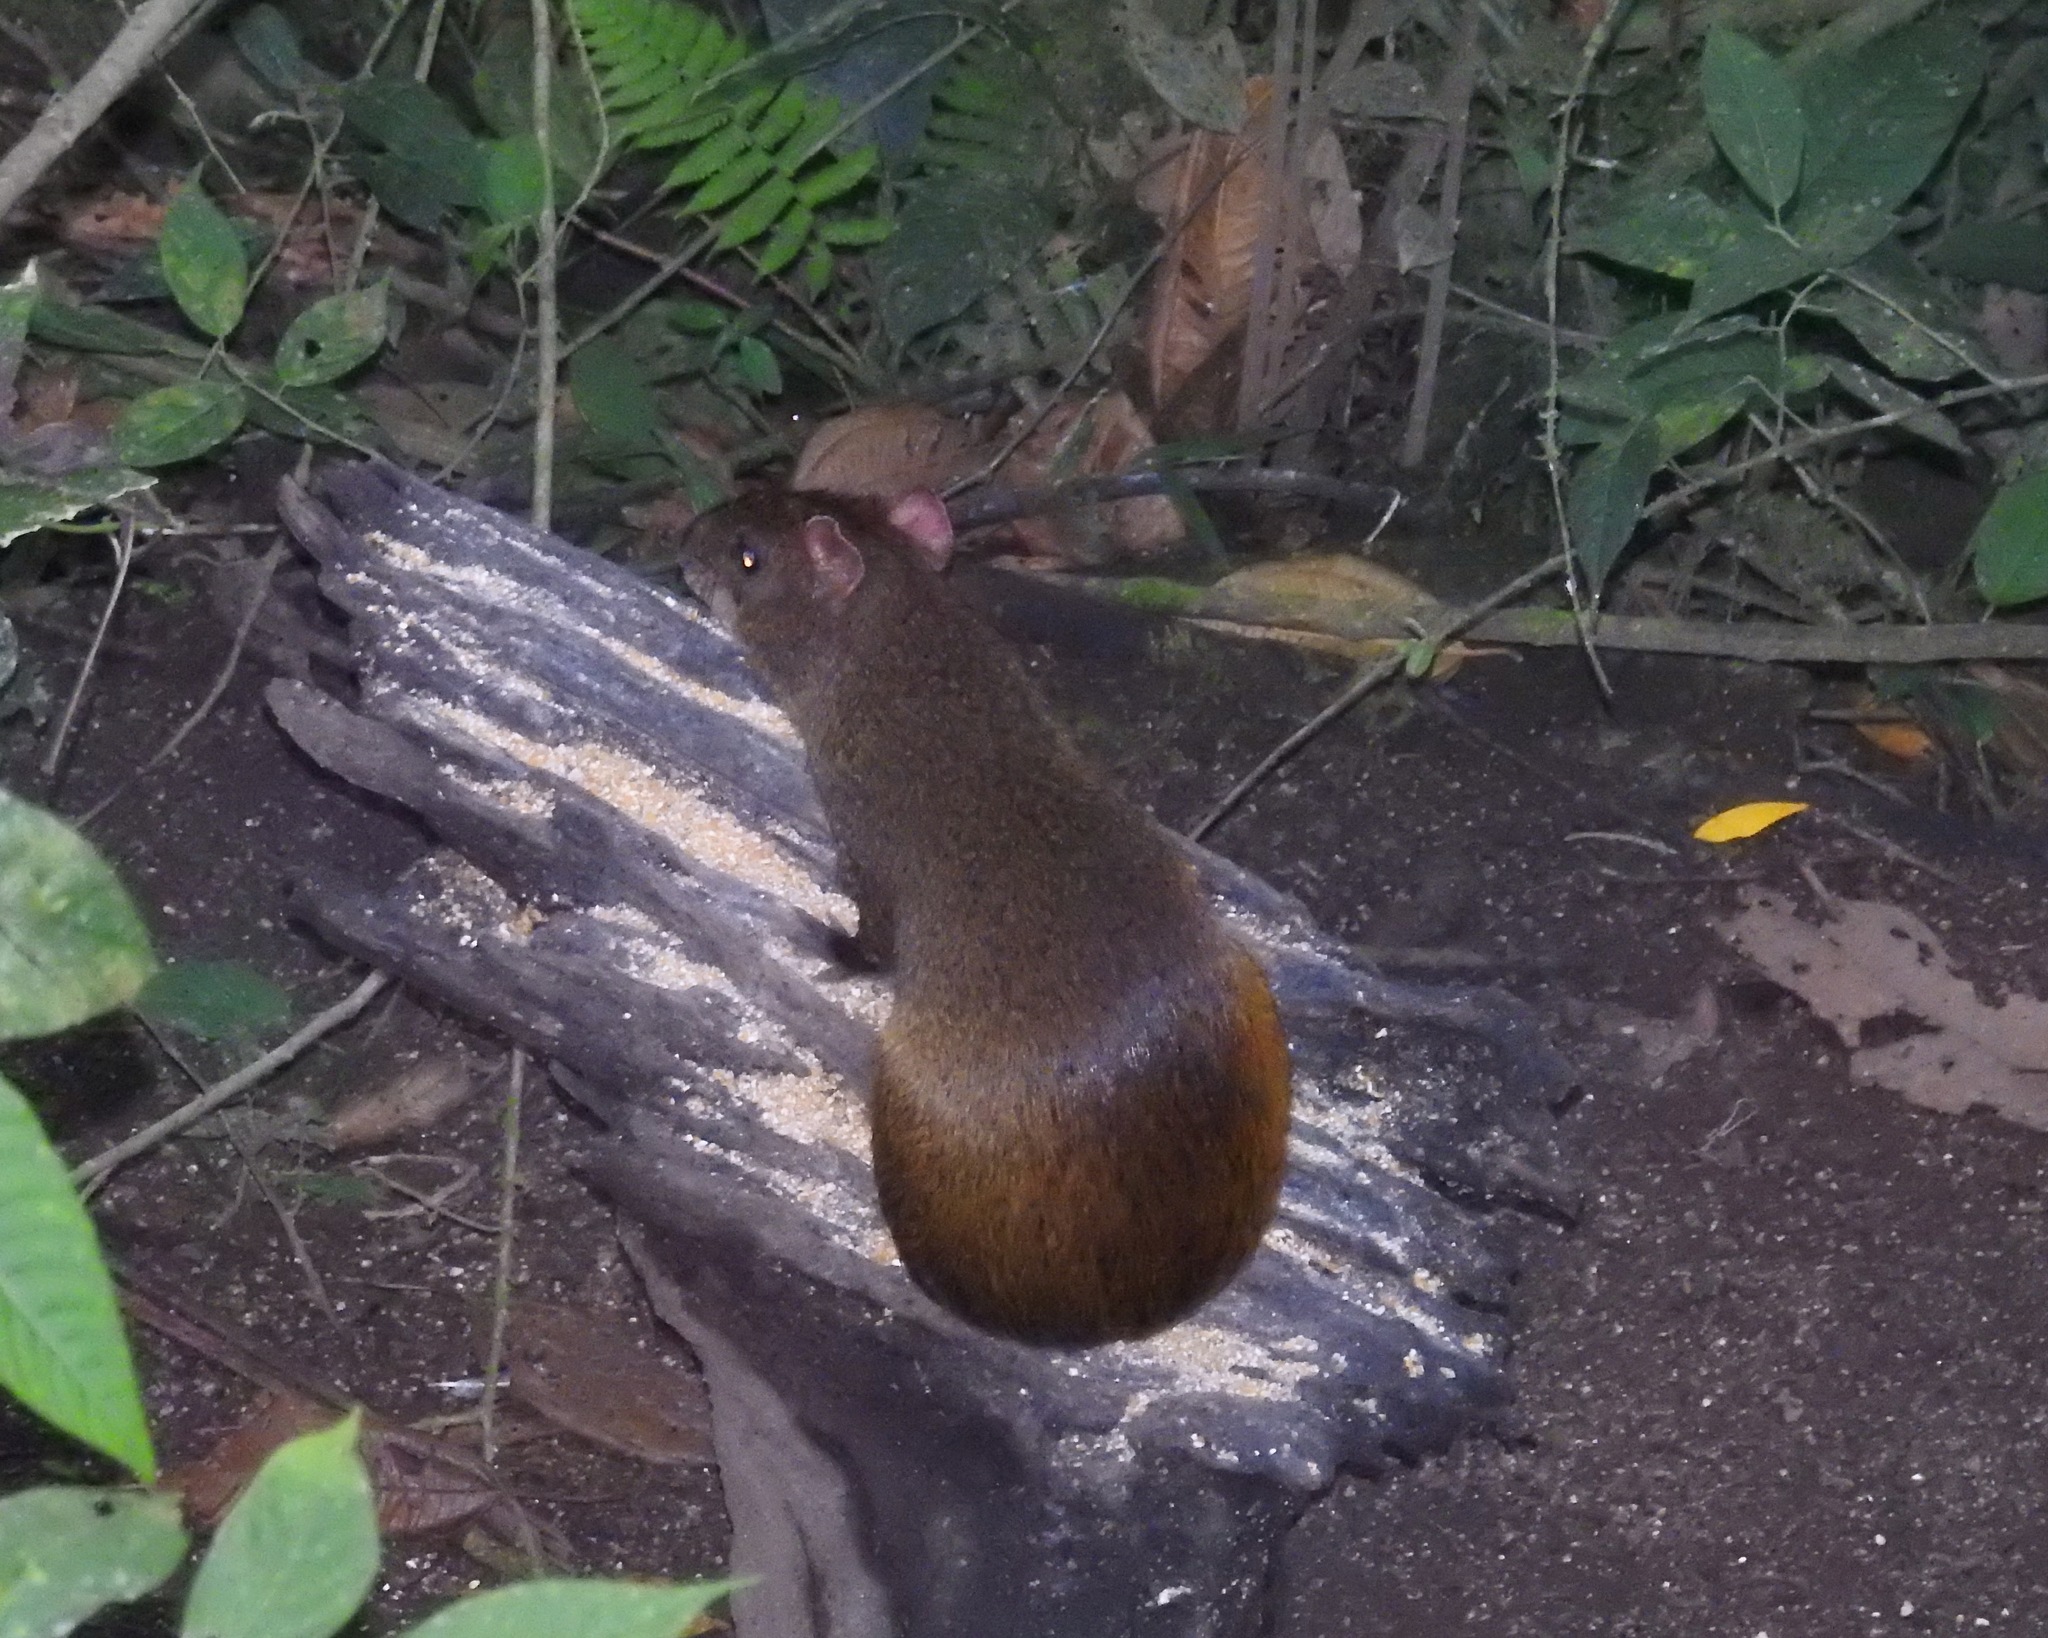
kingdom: Animalia
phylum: Chordata
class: Mammalia
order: Rodentia
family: Dasyproctidae
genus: Dasyprocta
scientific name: Dasyprocta punctata
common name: Central american agouti
